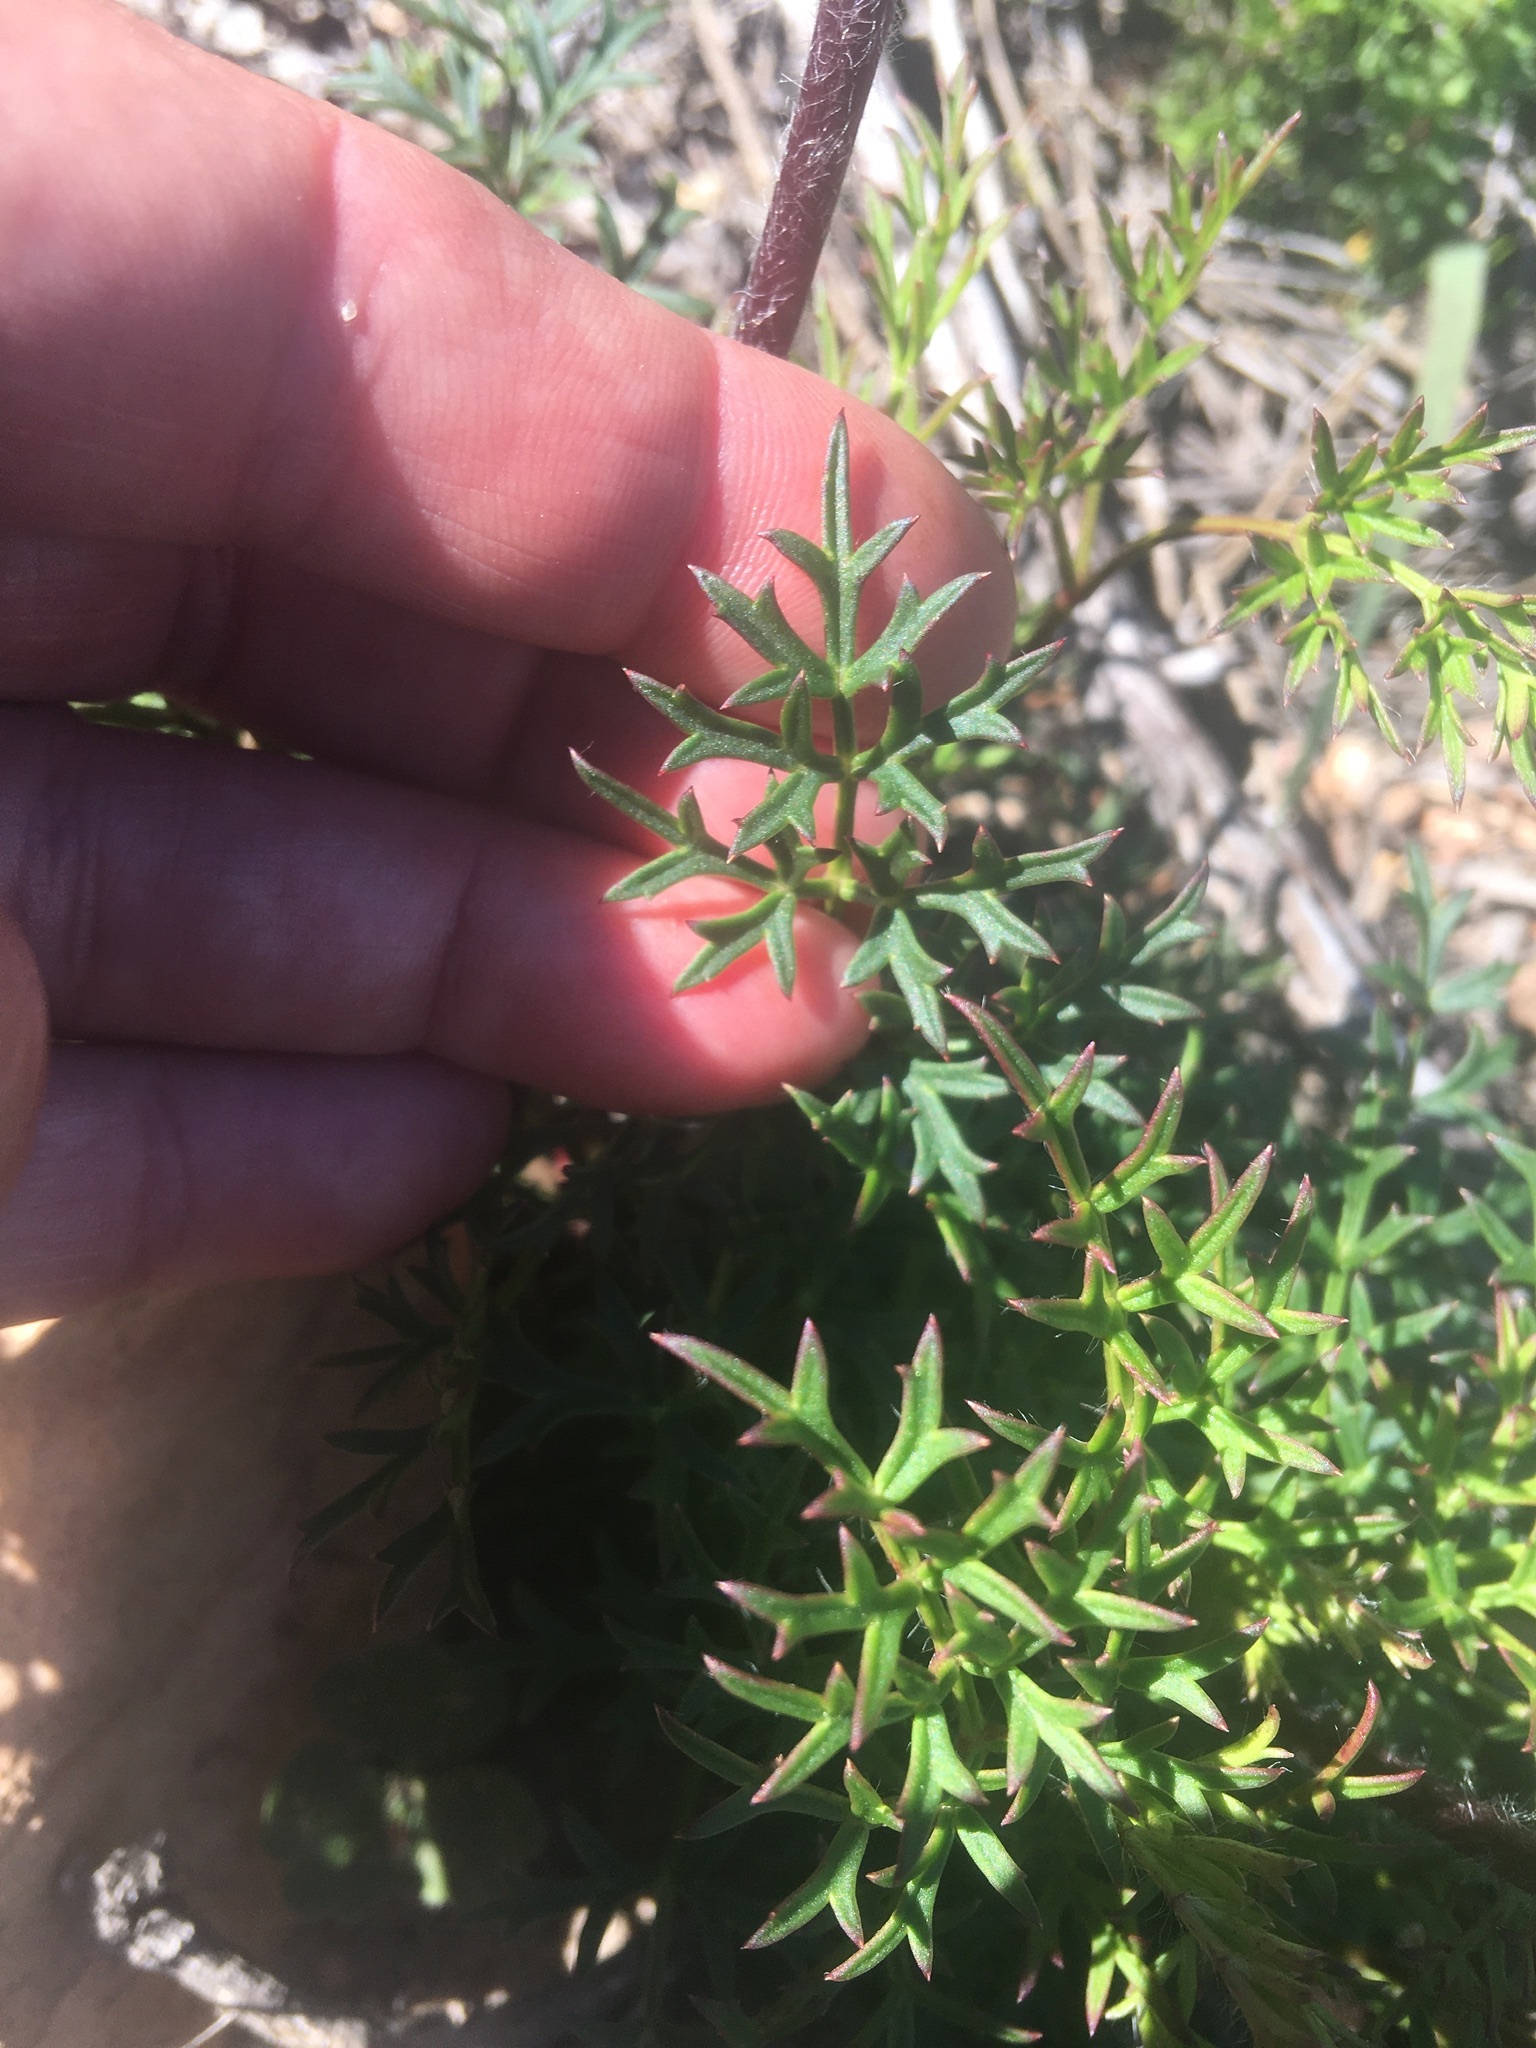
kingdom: Plantae
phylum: Tracheophyta
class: Magnoliopsida
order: Ranunculales
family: Ranunculaceae
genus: Knowltonia
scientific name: Knowltonia tenuifolia
